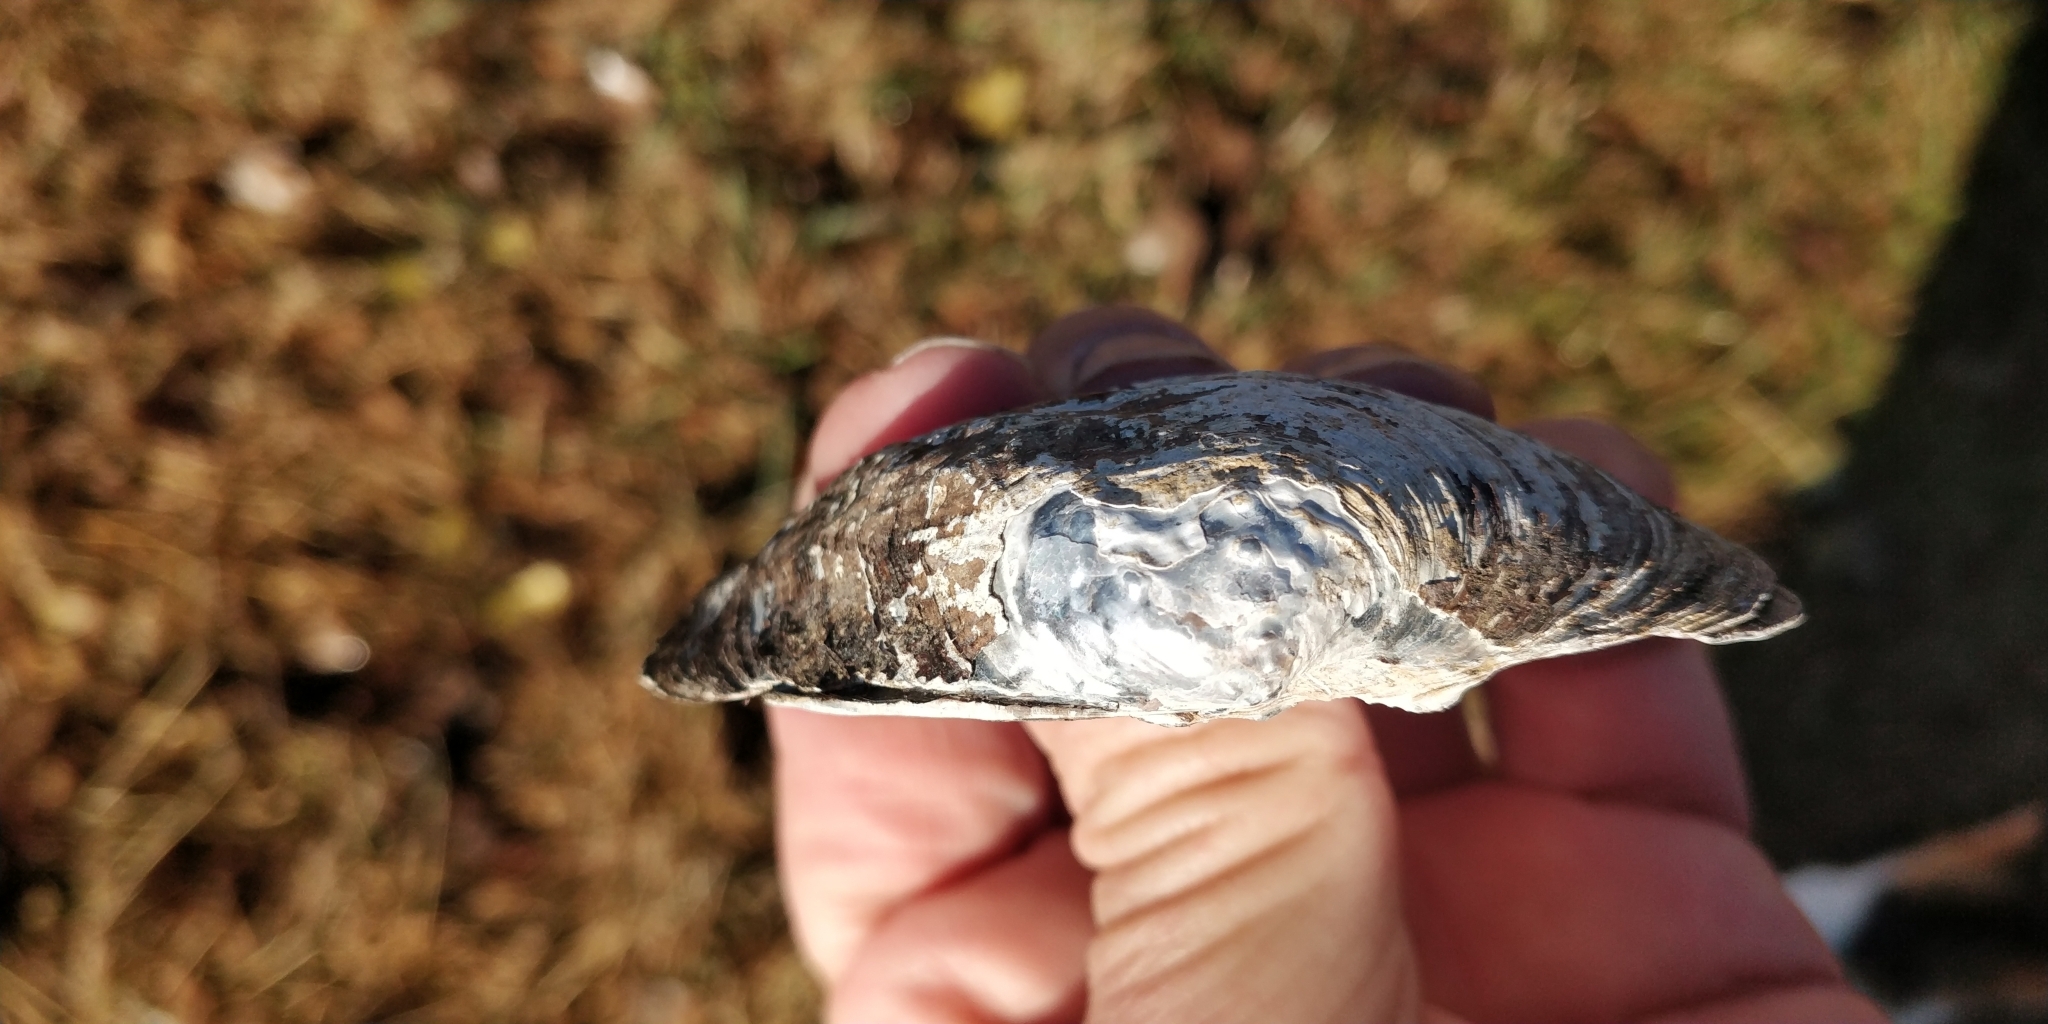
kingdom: Animalia
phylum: Mollusca
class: Bivalvia
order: Unionida
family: Unionidae
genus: Arcidens
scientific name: Arcidens confragosus
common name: Rock pocketbook
